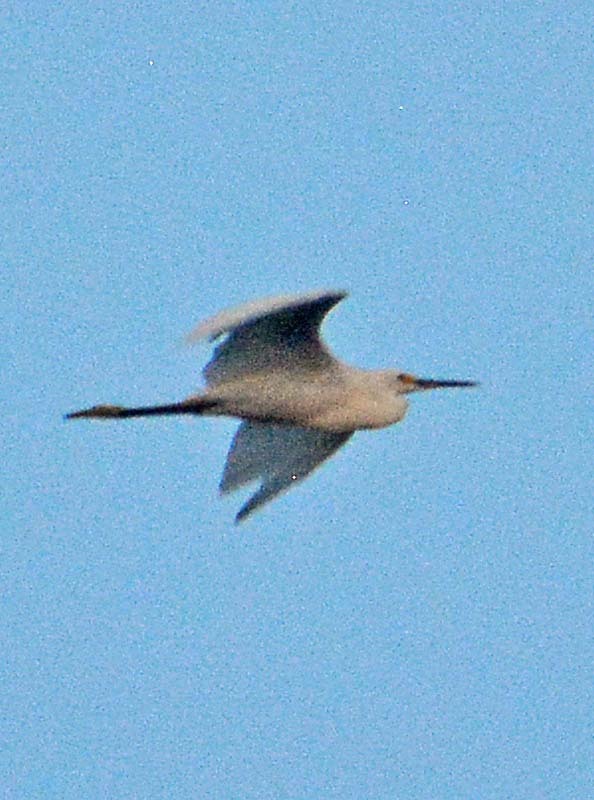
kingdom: Animalia
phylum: Chordata
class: Aves
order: Pelecaniformes
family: Ardeidae
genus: Egretta
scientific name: Egretta thula
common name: Snowy egret
